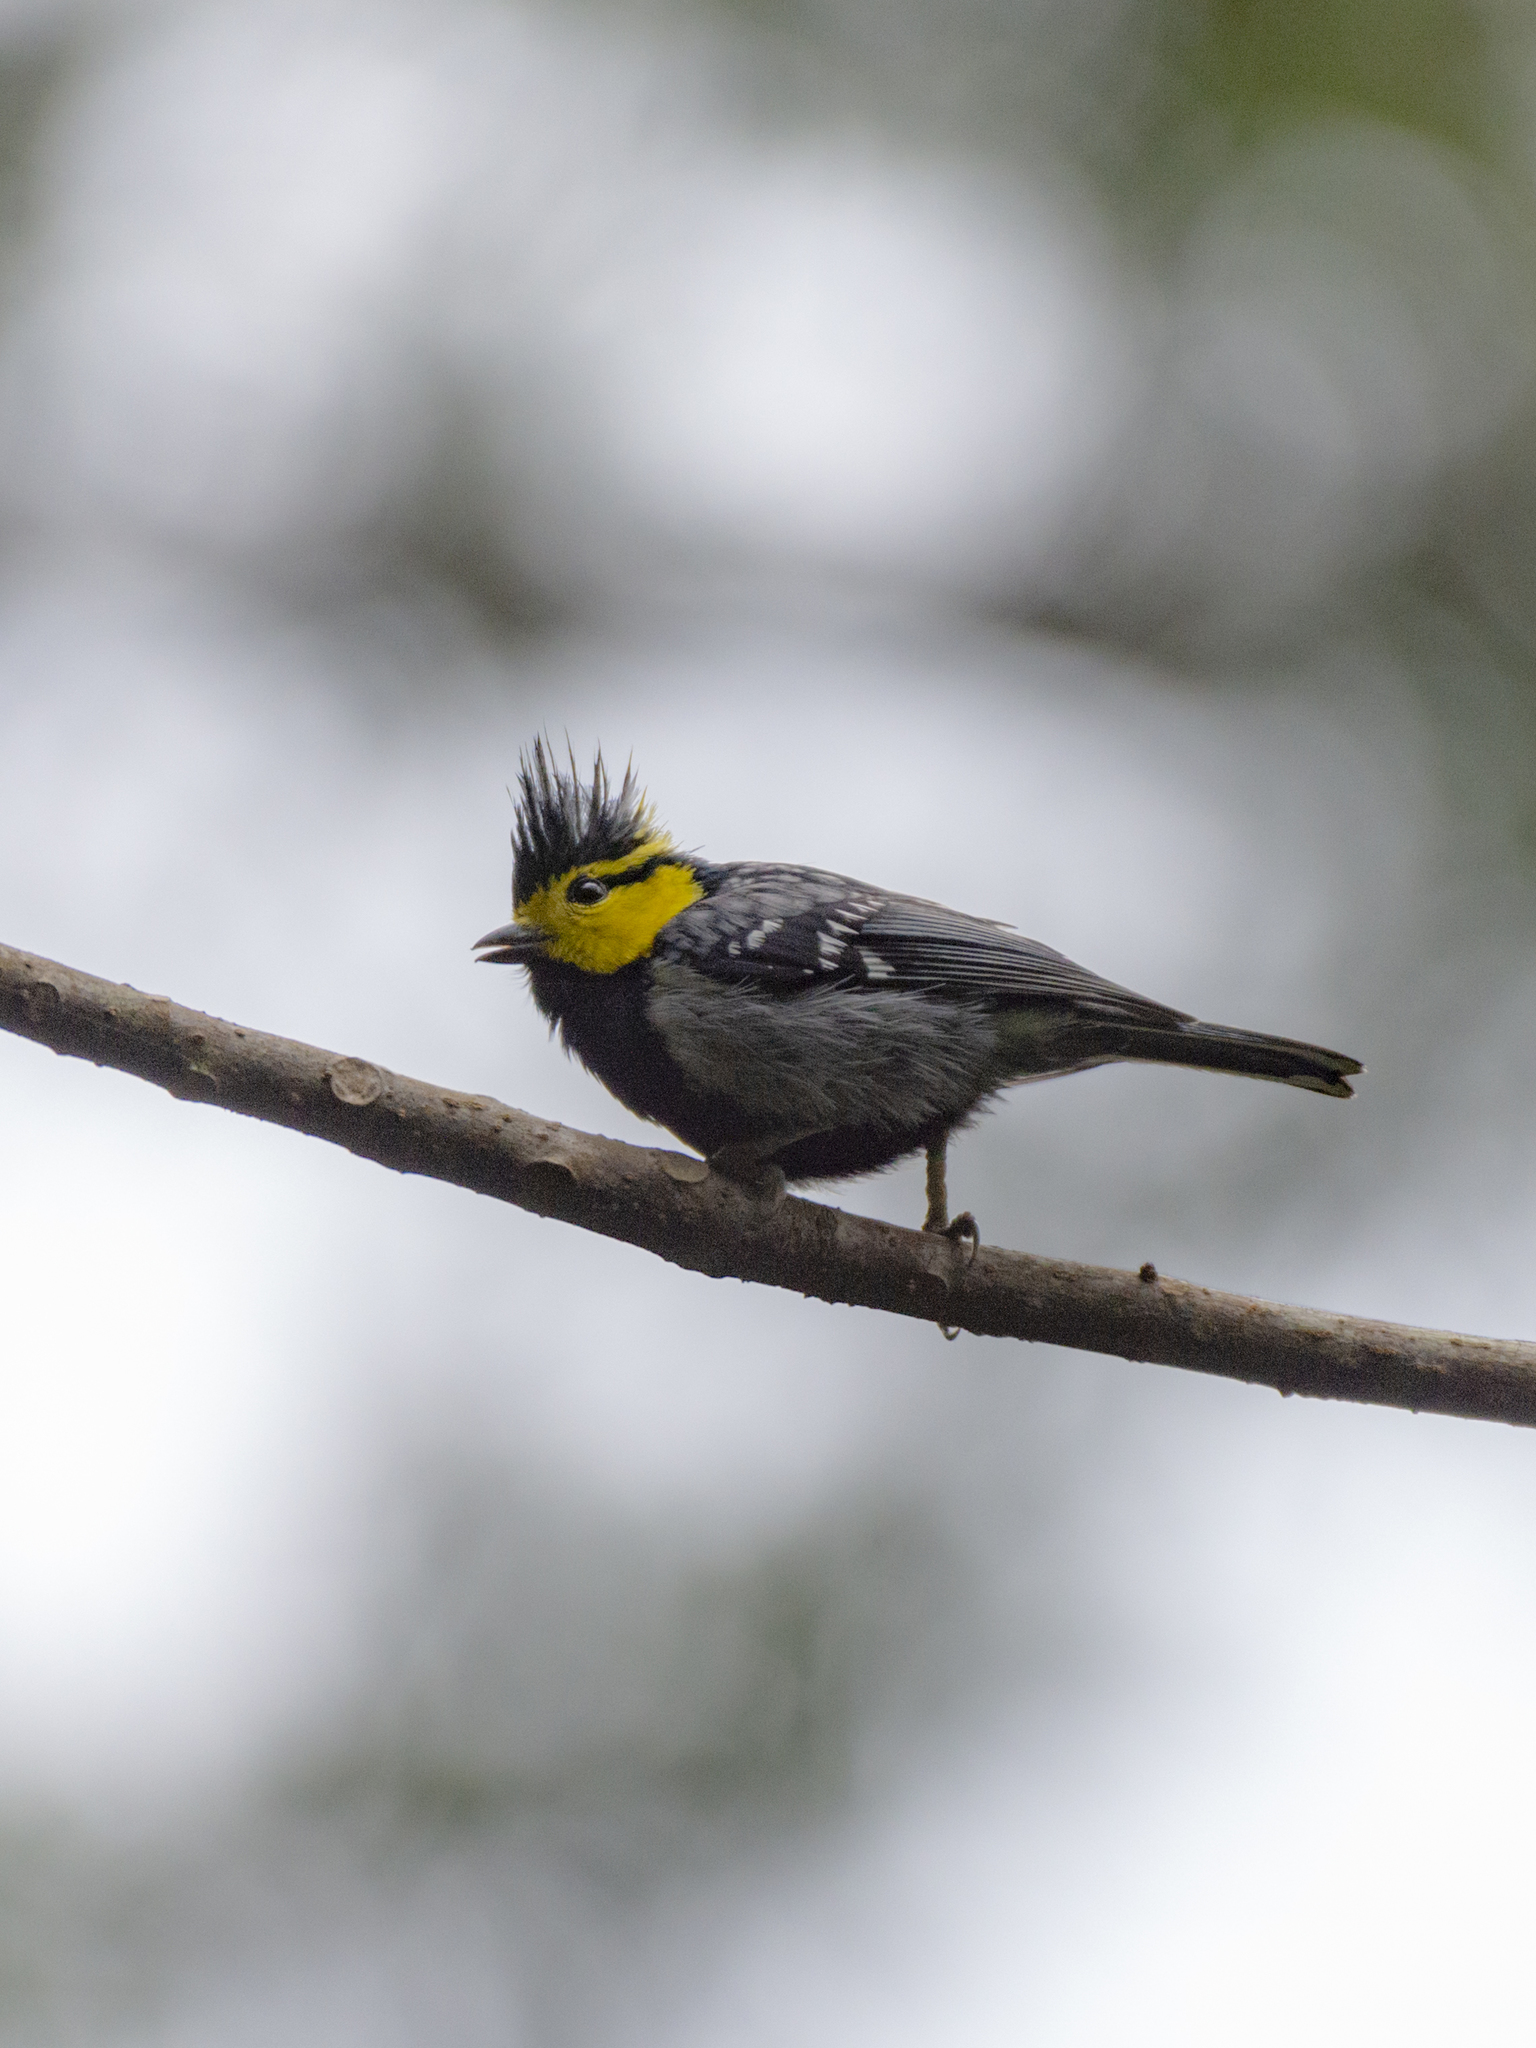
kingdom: Animalia
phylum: Chordata
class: Aves
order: Passeriformes
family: Paridae
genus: Parus
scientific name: Parus spilonotus
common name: Yellow-cheeked tit
